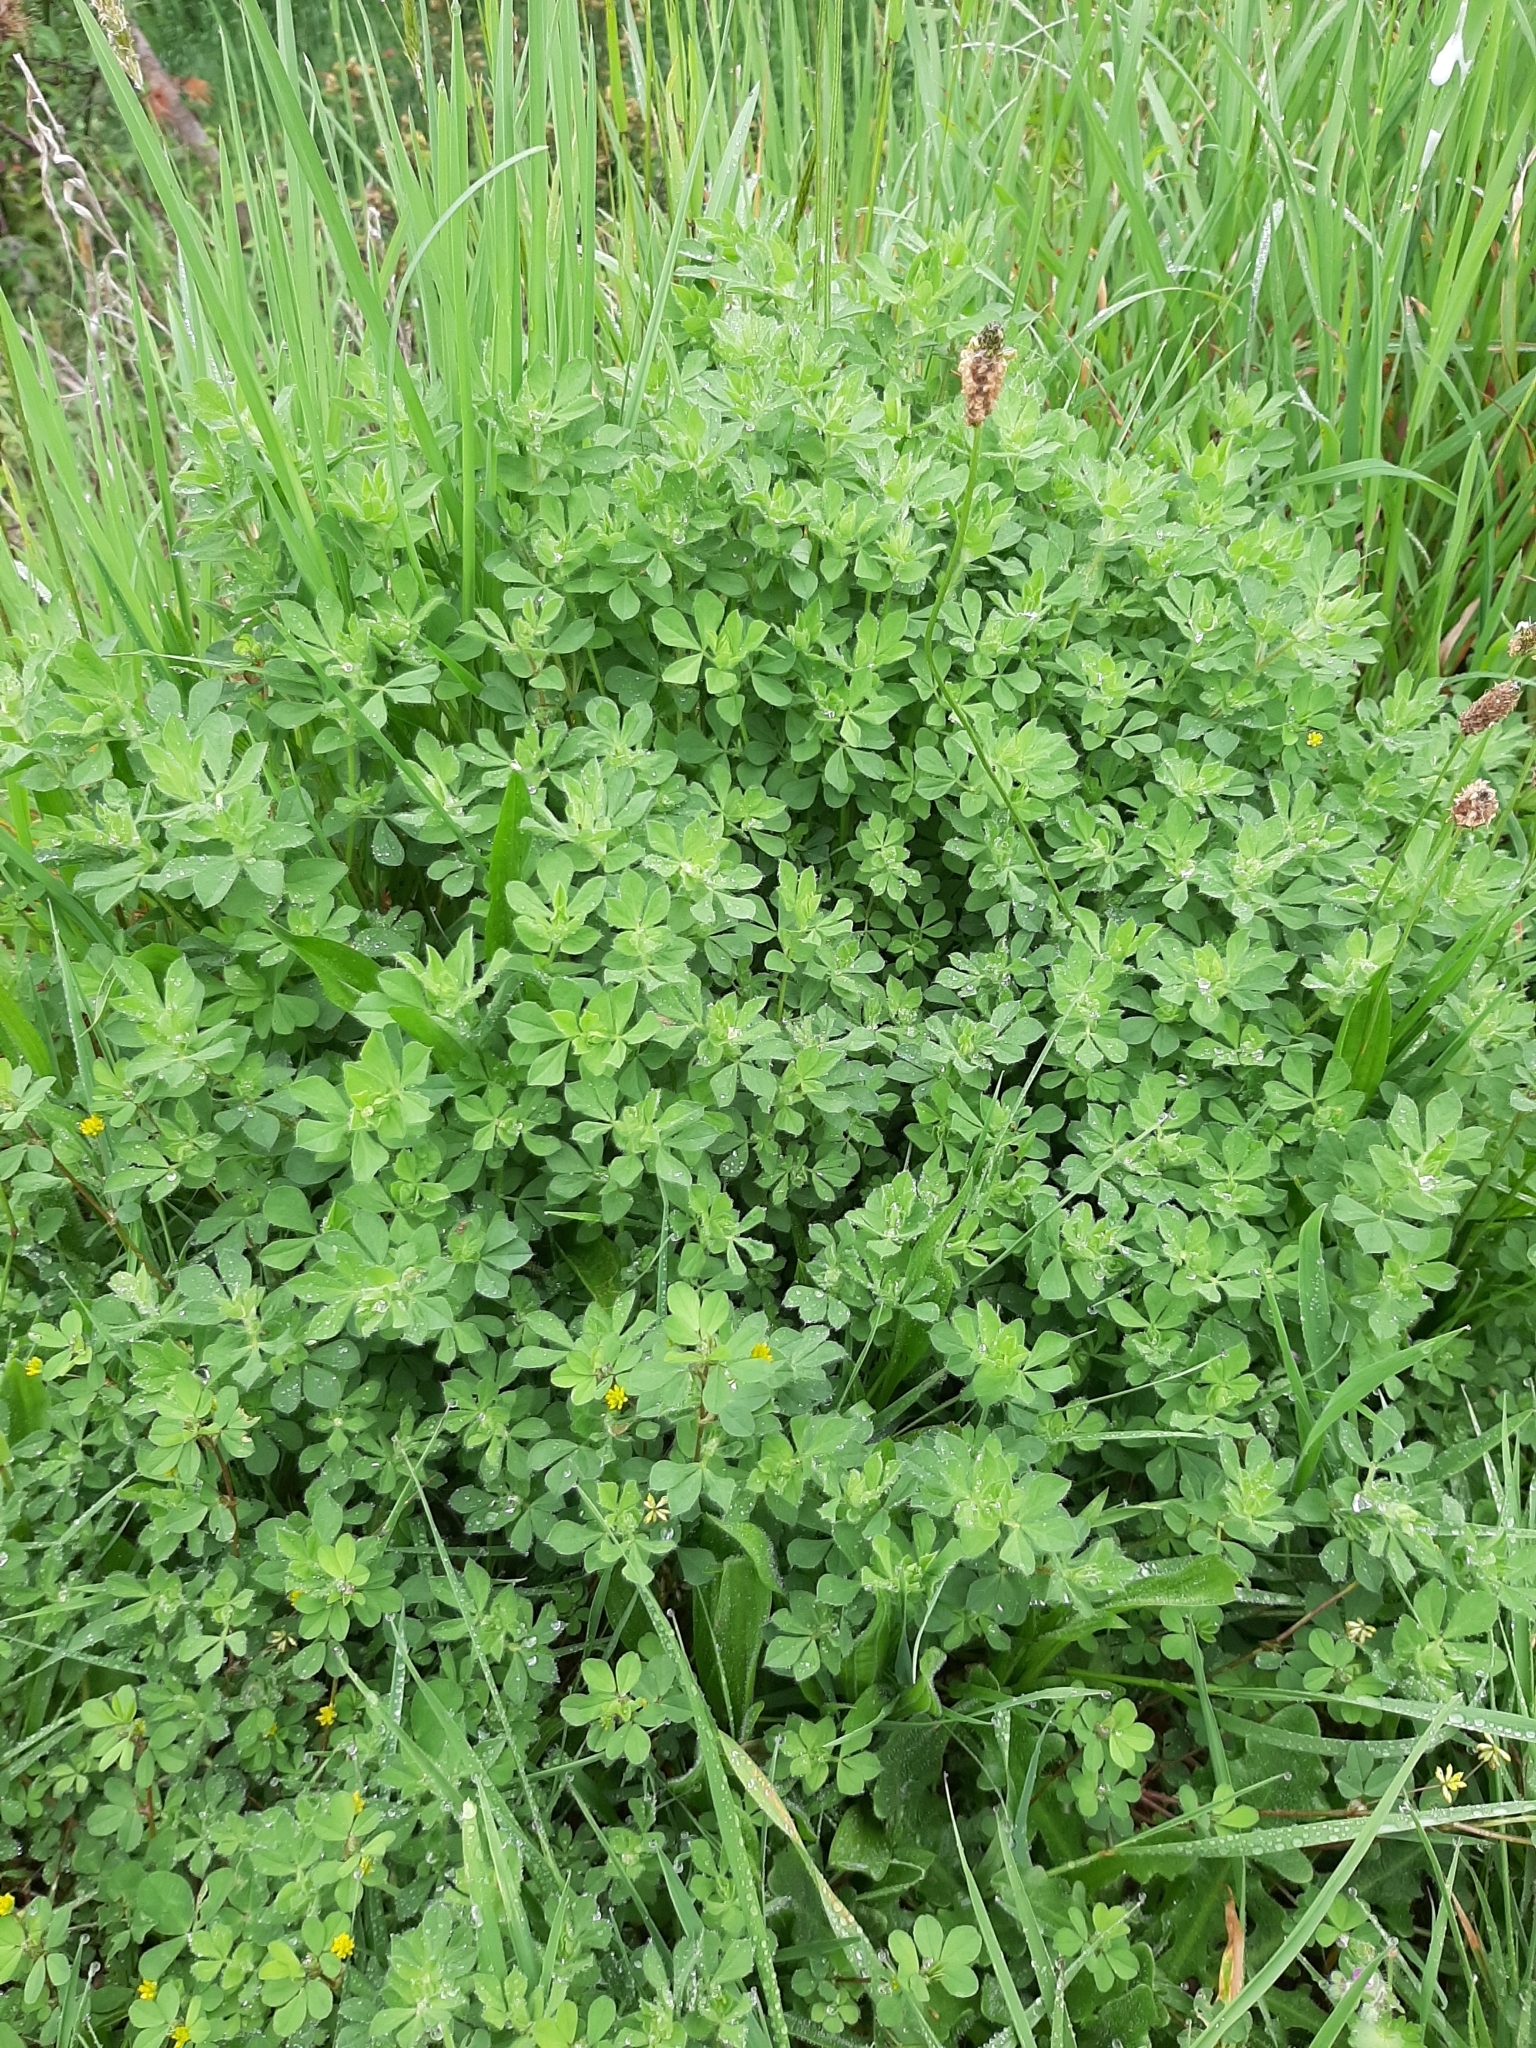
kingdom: Plantae
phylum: Tracheophyta
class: Magnoliopsida
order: Fabales
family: Fabaceae
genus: Lotus
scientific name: Lotus pedunculatus
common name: Greater birdsfoot-trefoil
